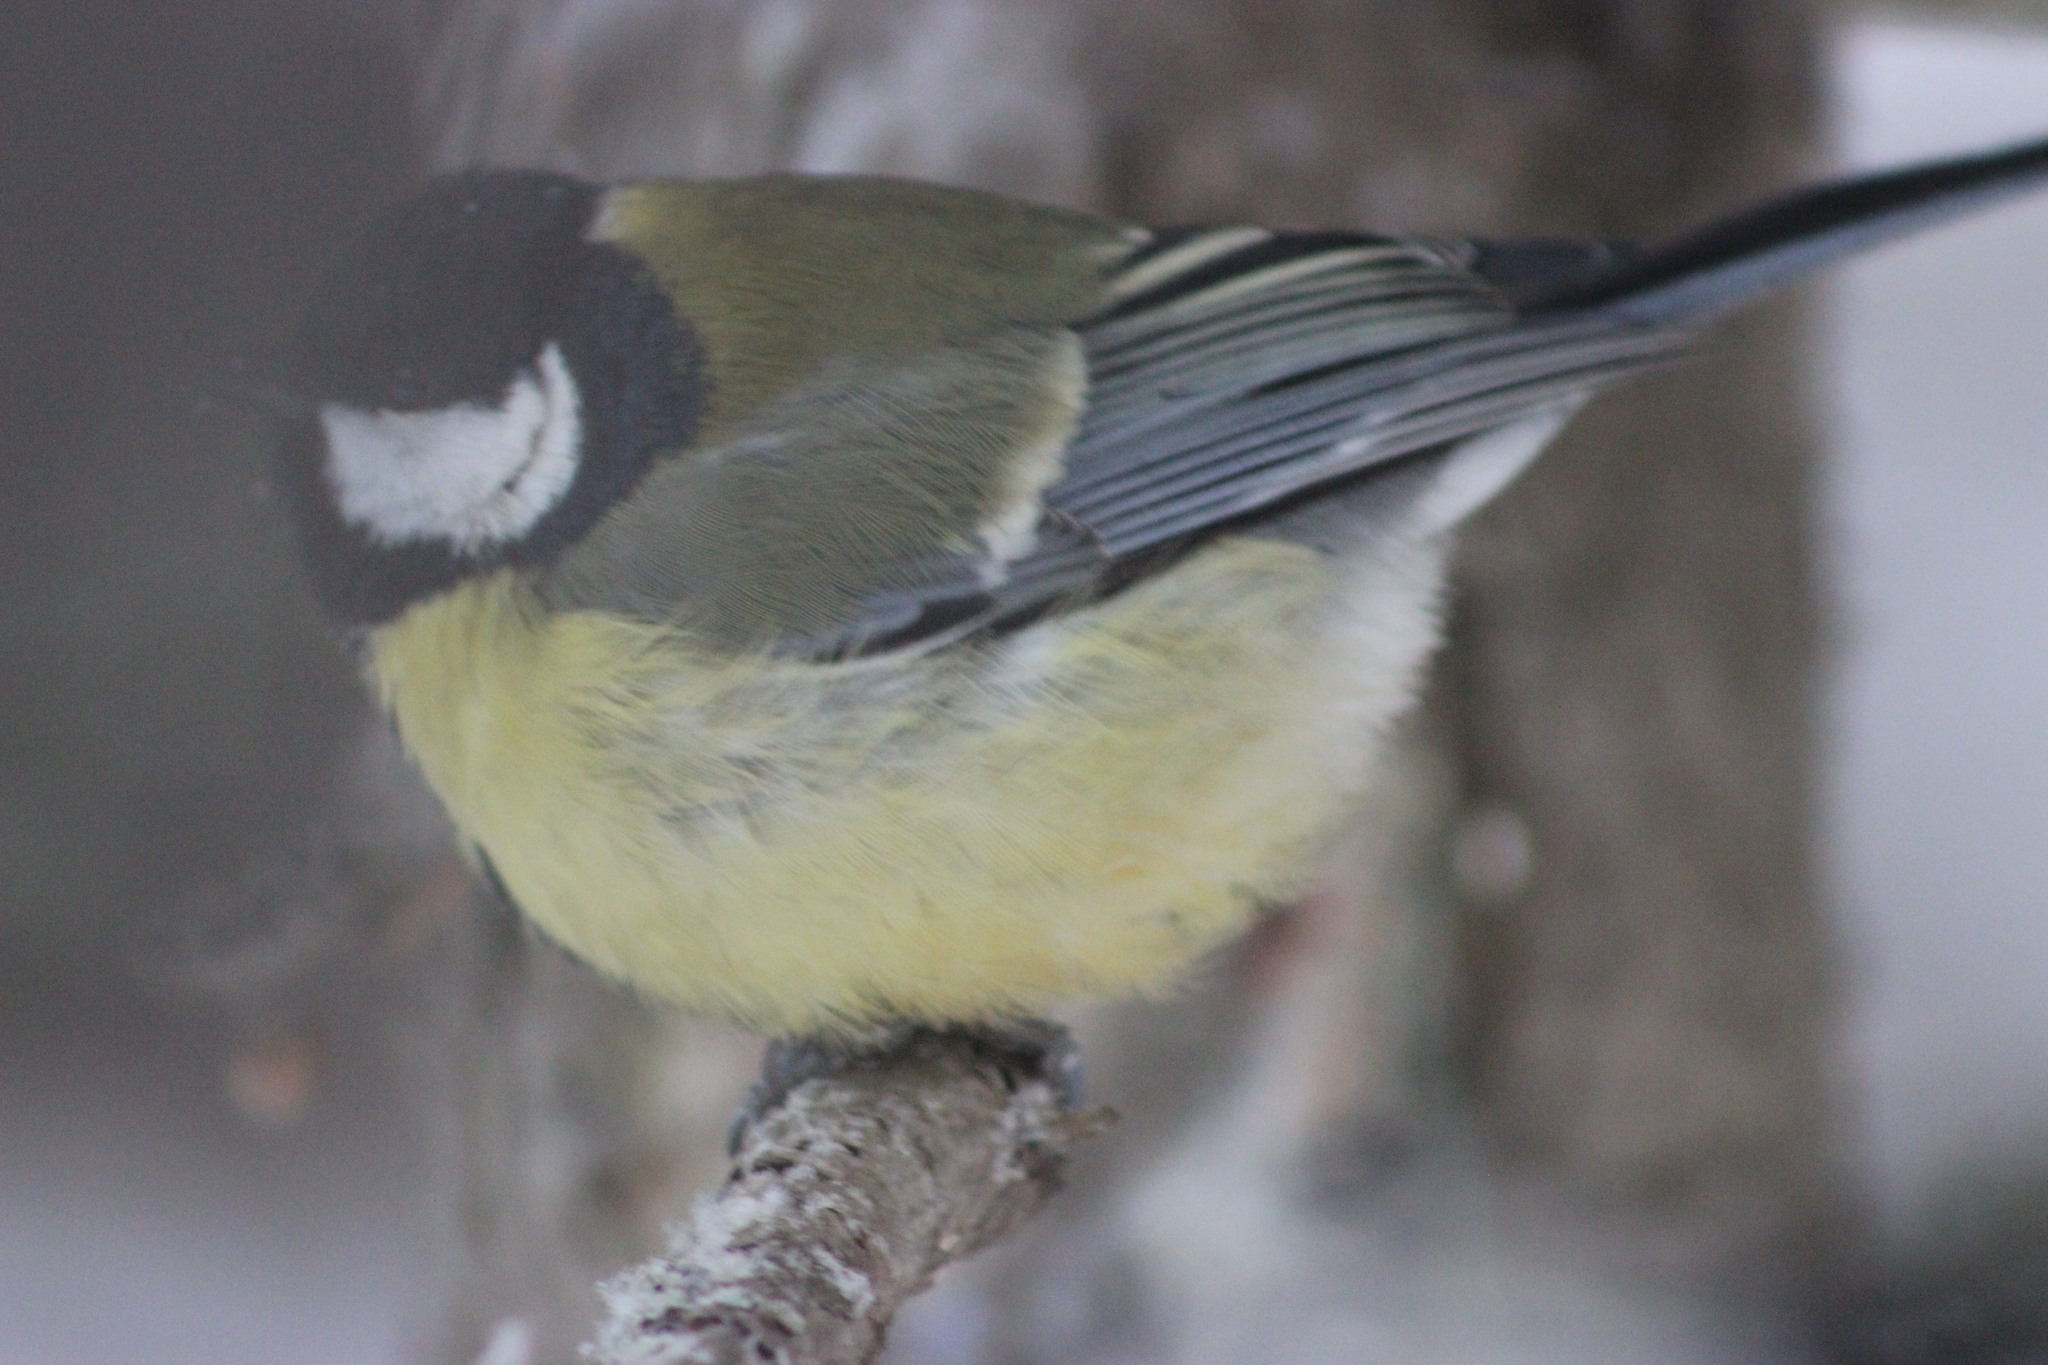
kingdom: Animalia
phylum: Chordata
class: Aves
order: Passeriformes
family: Paridae
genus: Parus
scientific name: Parus major
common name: Great tit
